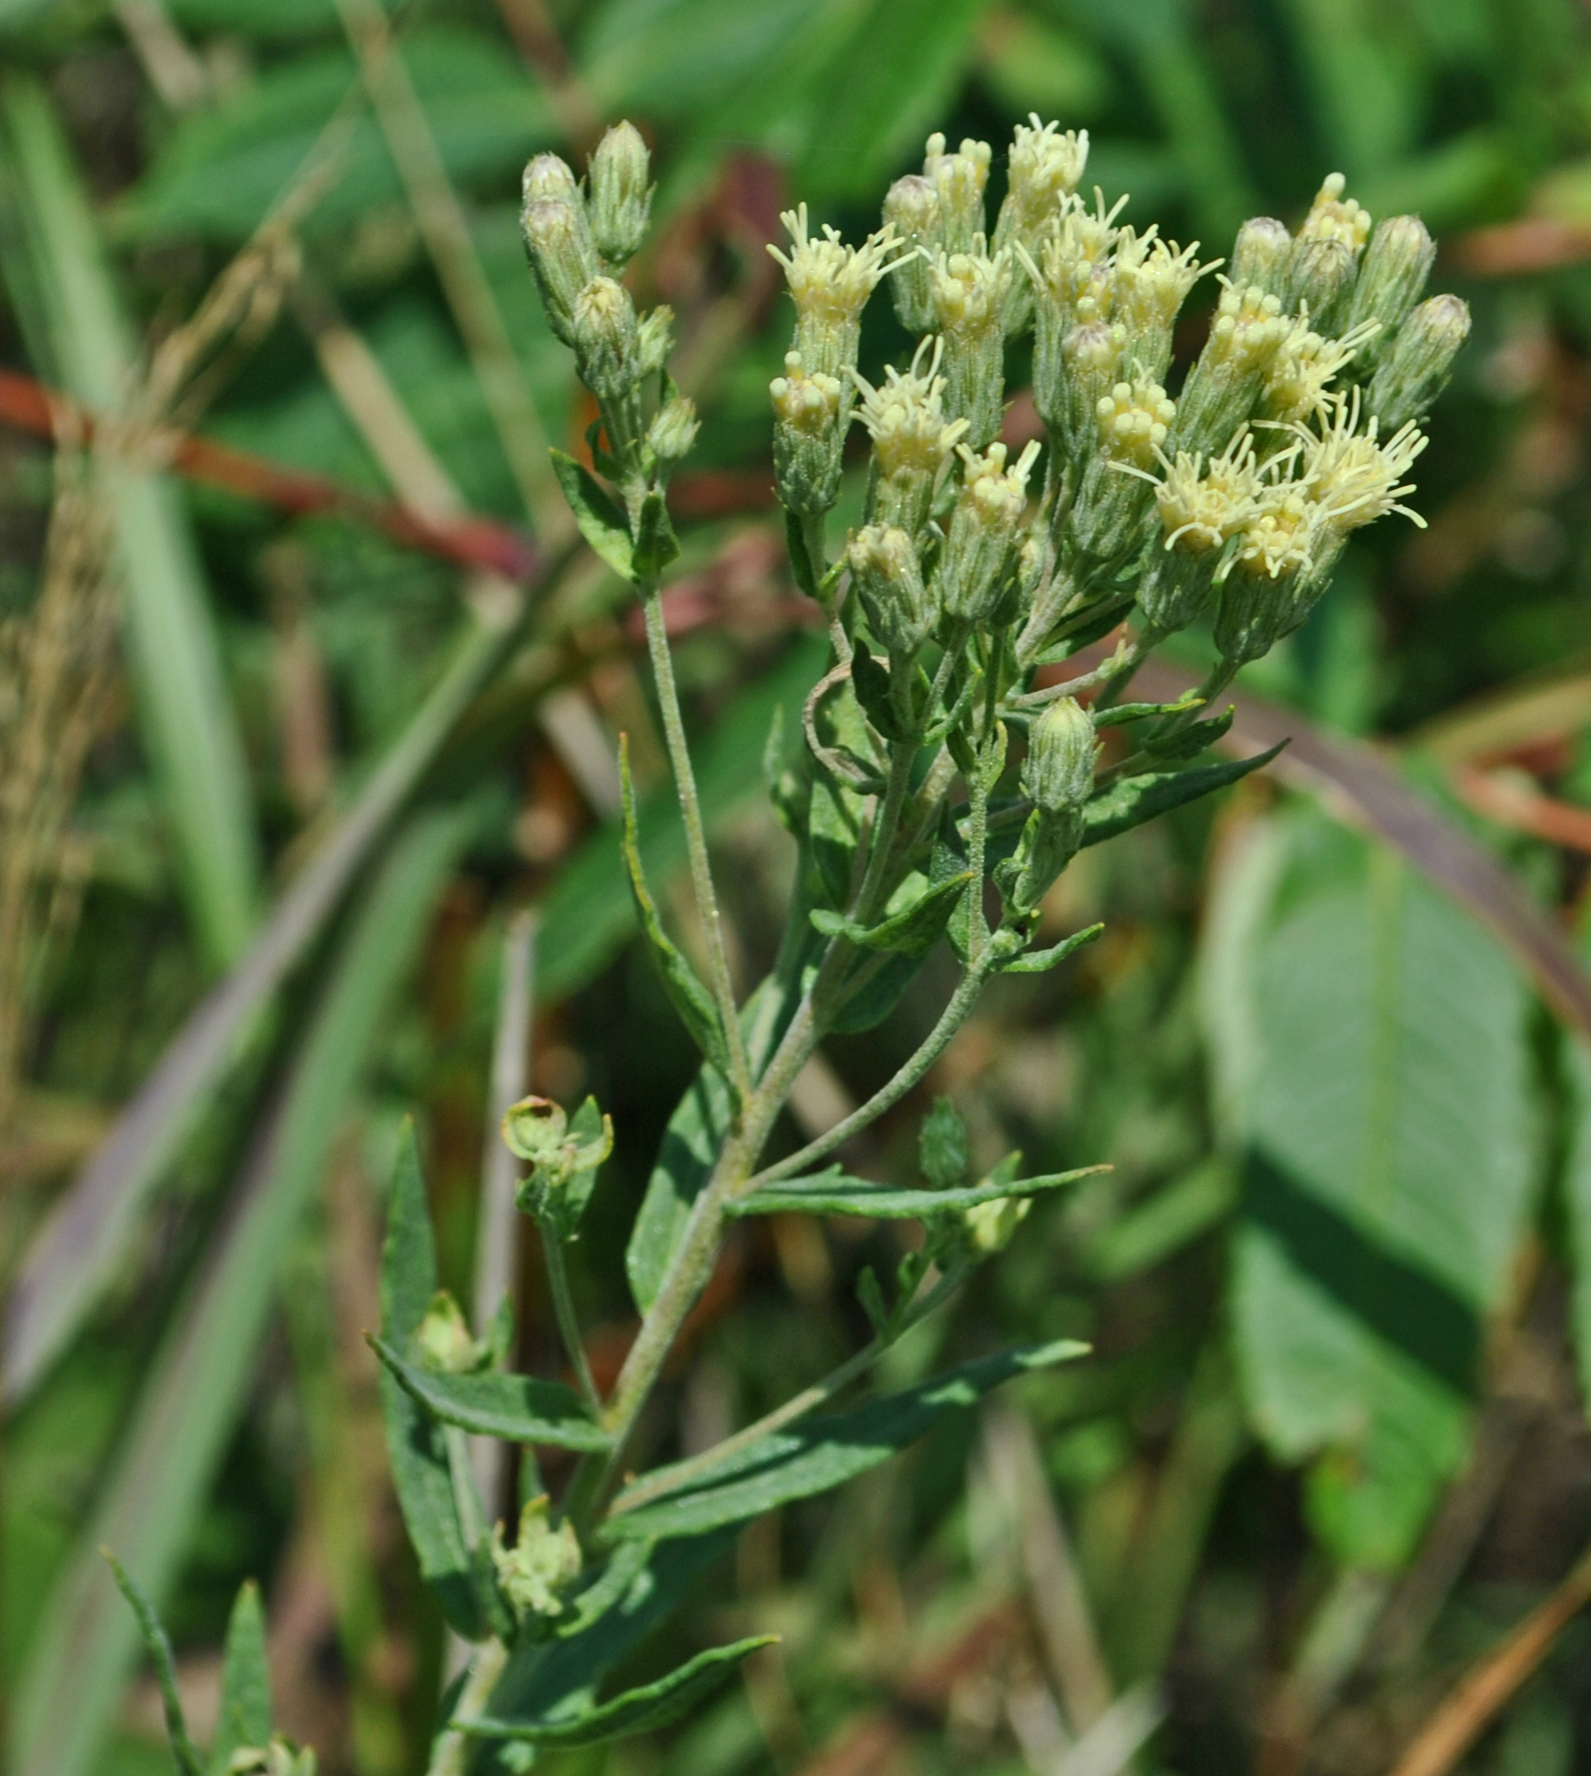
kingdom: Plantae
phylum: Tracheophyta
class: Magnoliopsida
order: Asterales
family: Asteraceae
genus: Brickellia
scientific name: Brickellia eupatorioides
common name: False boneset
